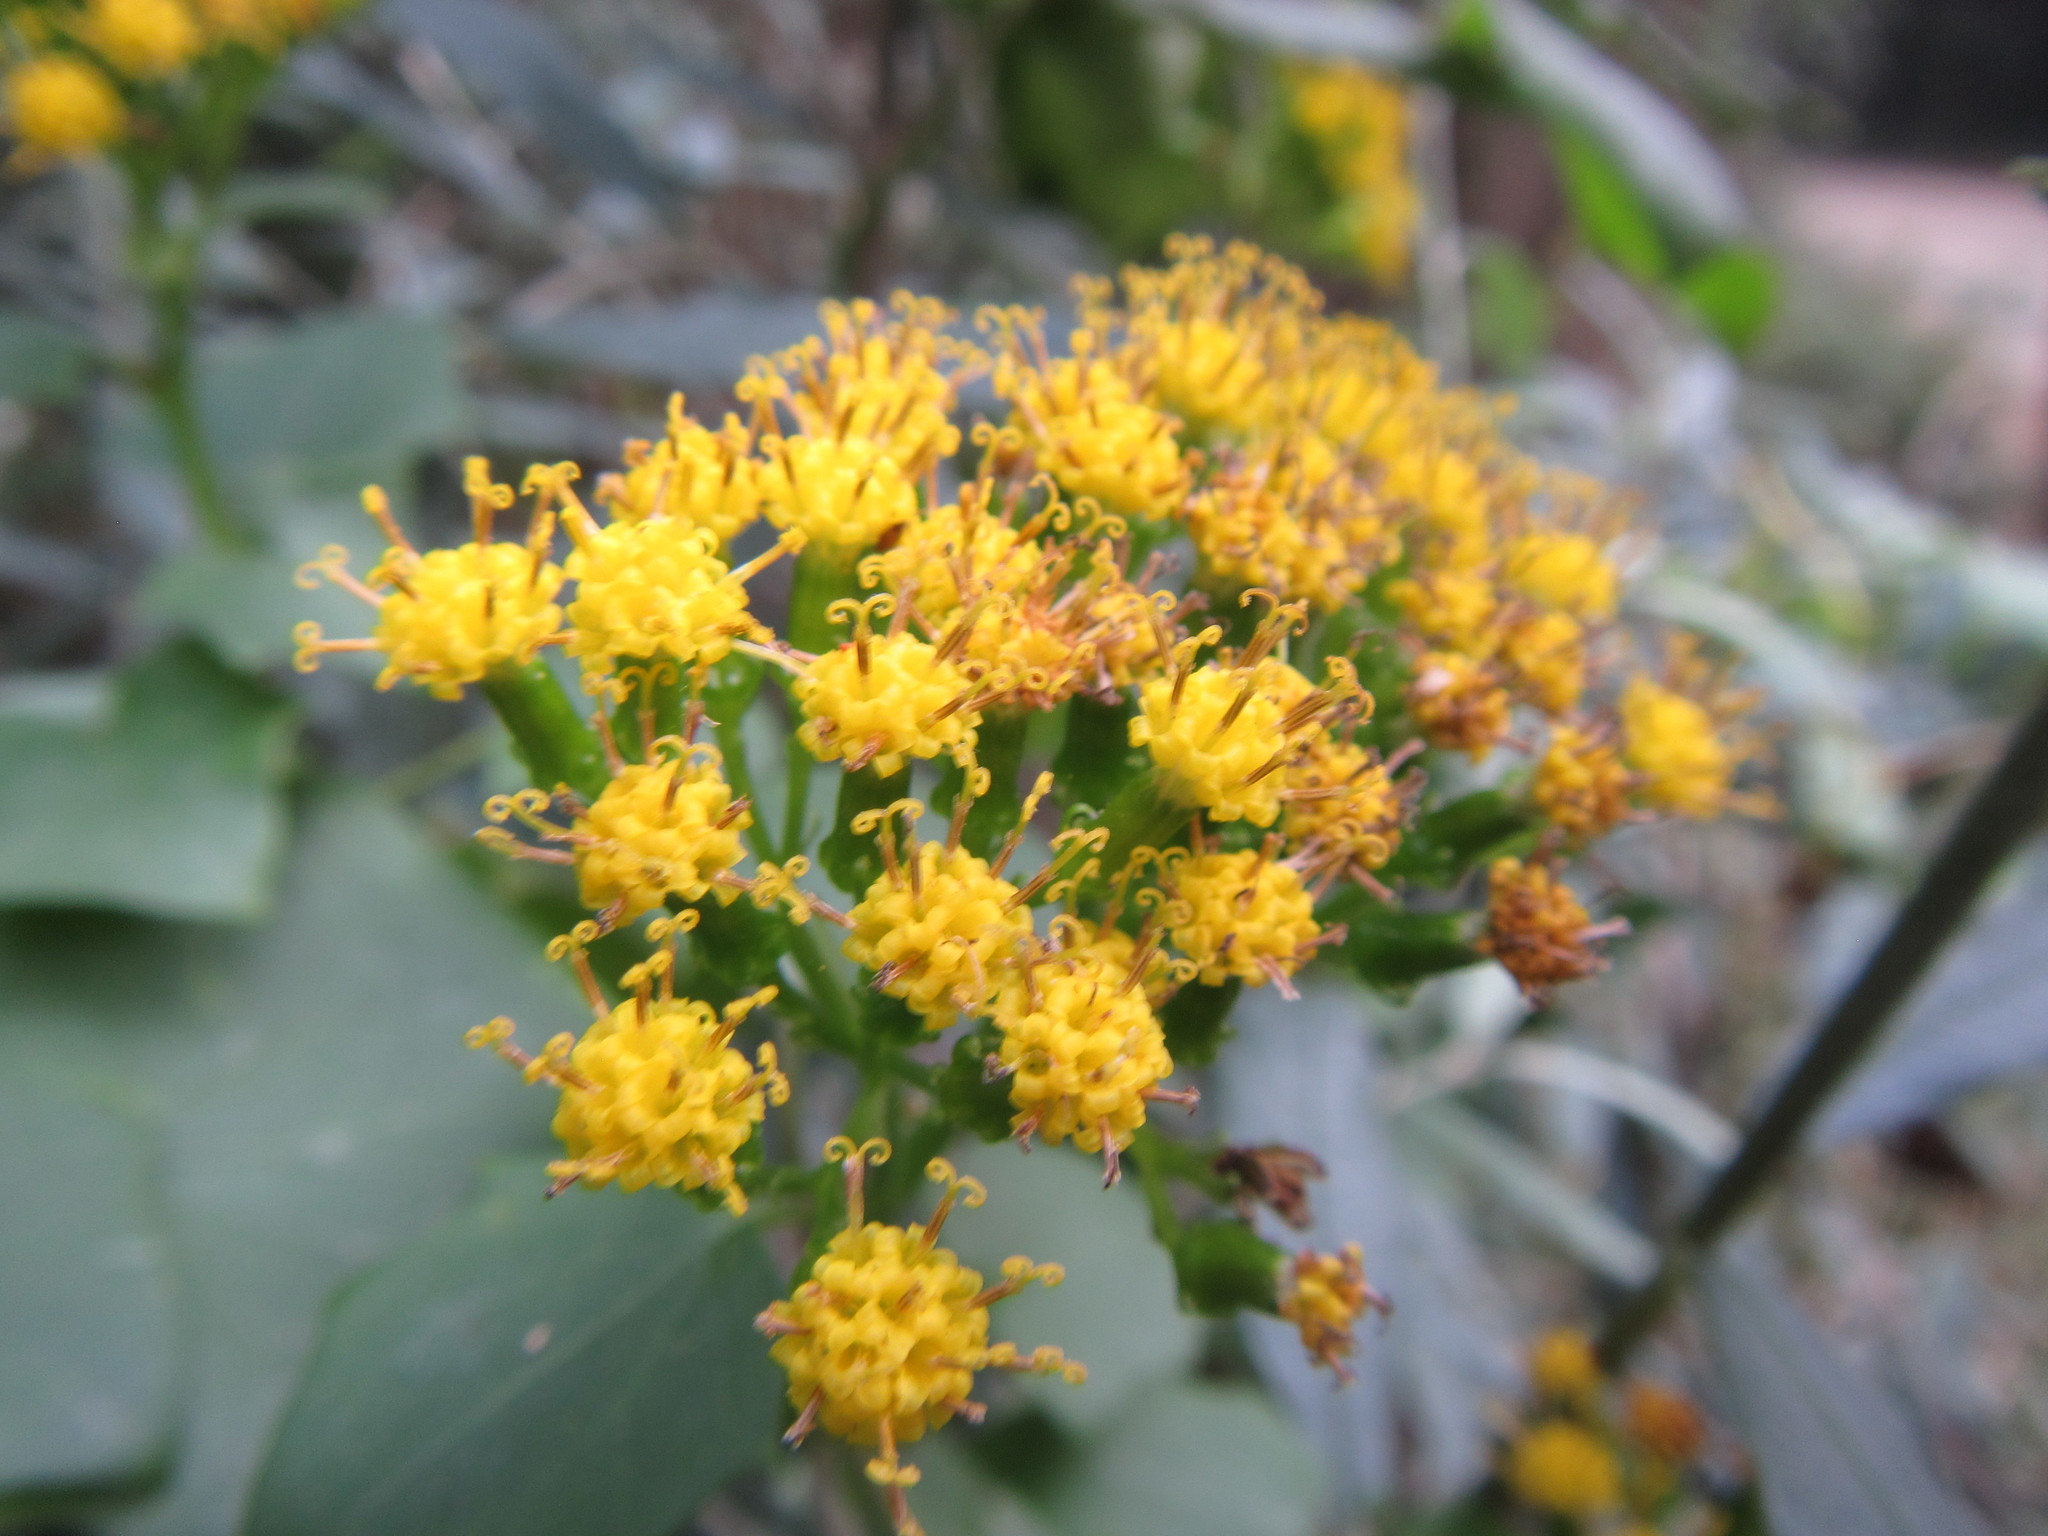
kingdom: Plantae
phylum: Tracheophyta
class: Magnoliopsida
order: Asterales
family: Asteraceae
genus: Delairea
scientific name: Delairea odorata
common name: Cape-ivy
